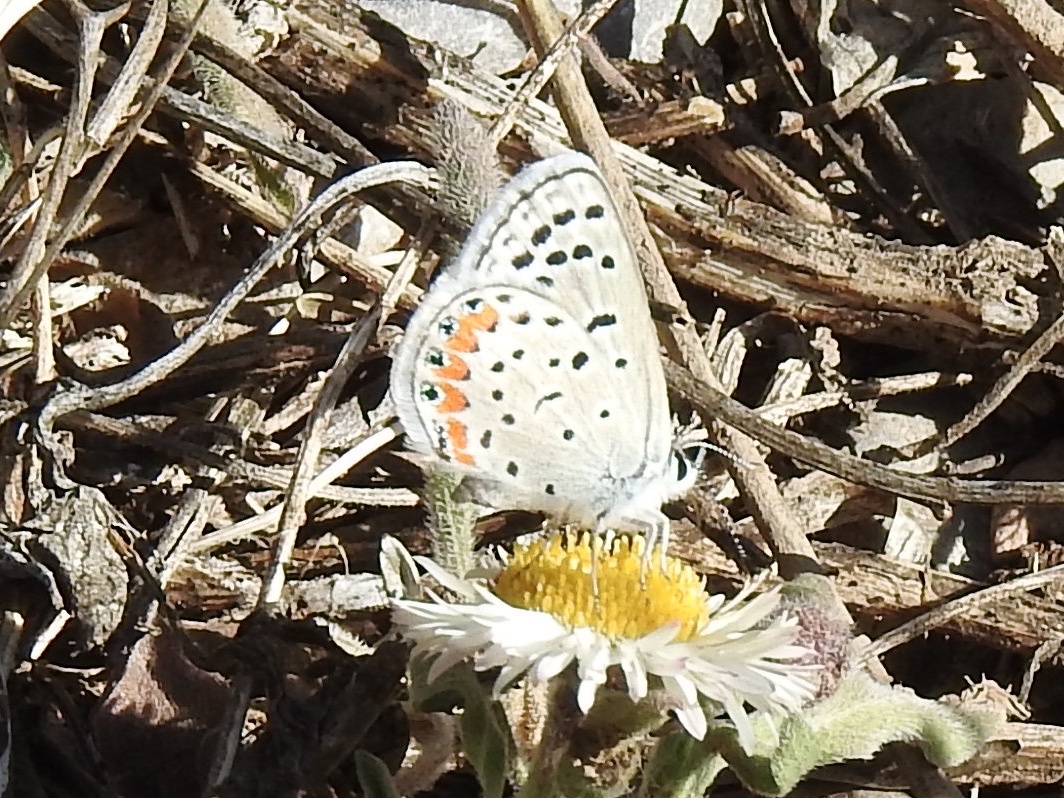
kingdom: Animalia
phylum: Arthropoda
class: Insecta
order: Lepidoptera
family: Lycaenidae
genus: Icaricia
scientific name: Icaricia lupini
